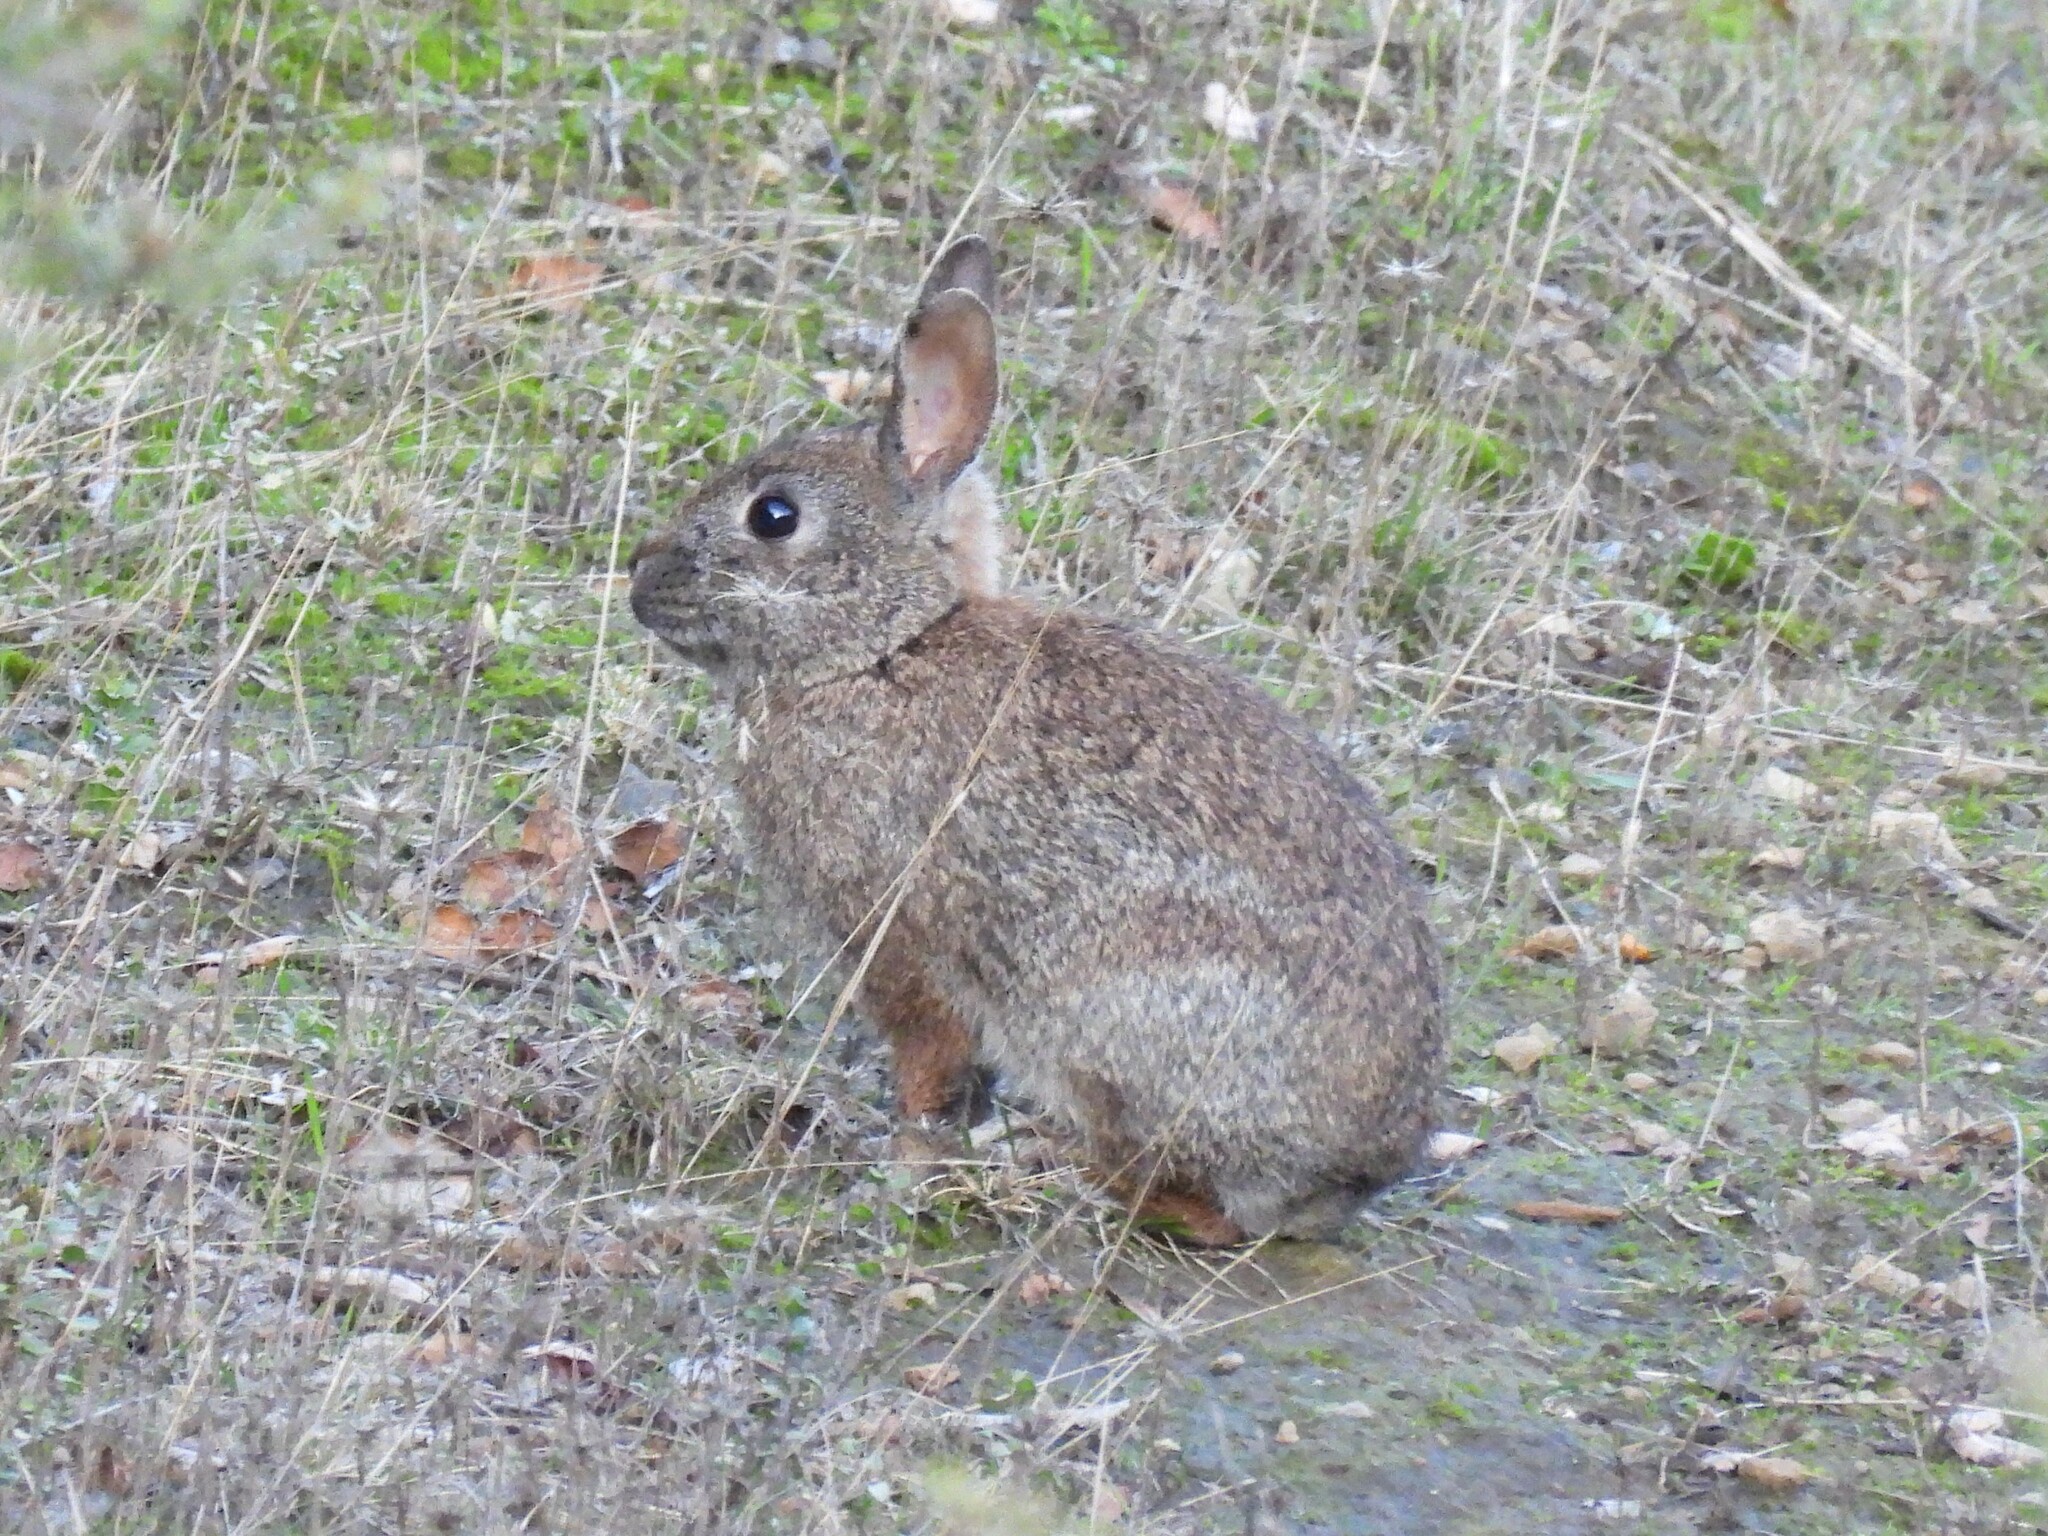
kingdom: Animalia
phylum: Chordata
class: Mammalia
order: Lagomorpha
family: Leporidae
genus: Sylvilagus
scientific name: Sylvilagus bachmani
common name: Brush rabbit
